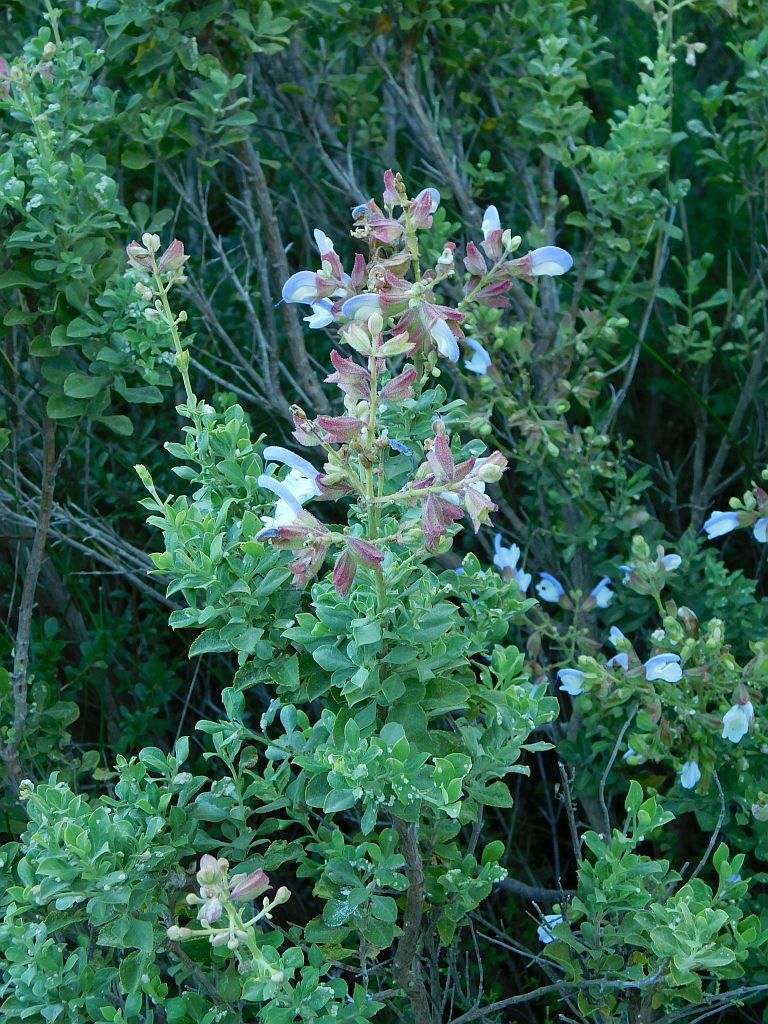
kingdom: Plantae
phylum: Tracheophyta
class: Magnoliopsida
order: Lamiales
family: Lamiaceae
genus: Salvia
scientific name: Salvia chamelaeagnea
